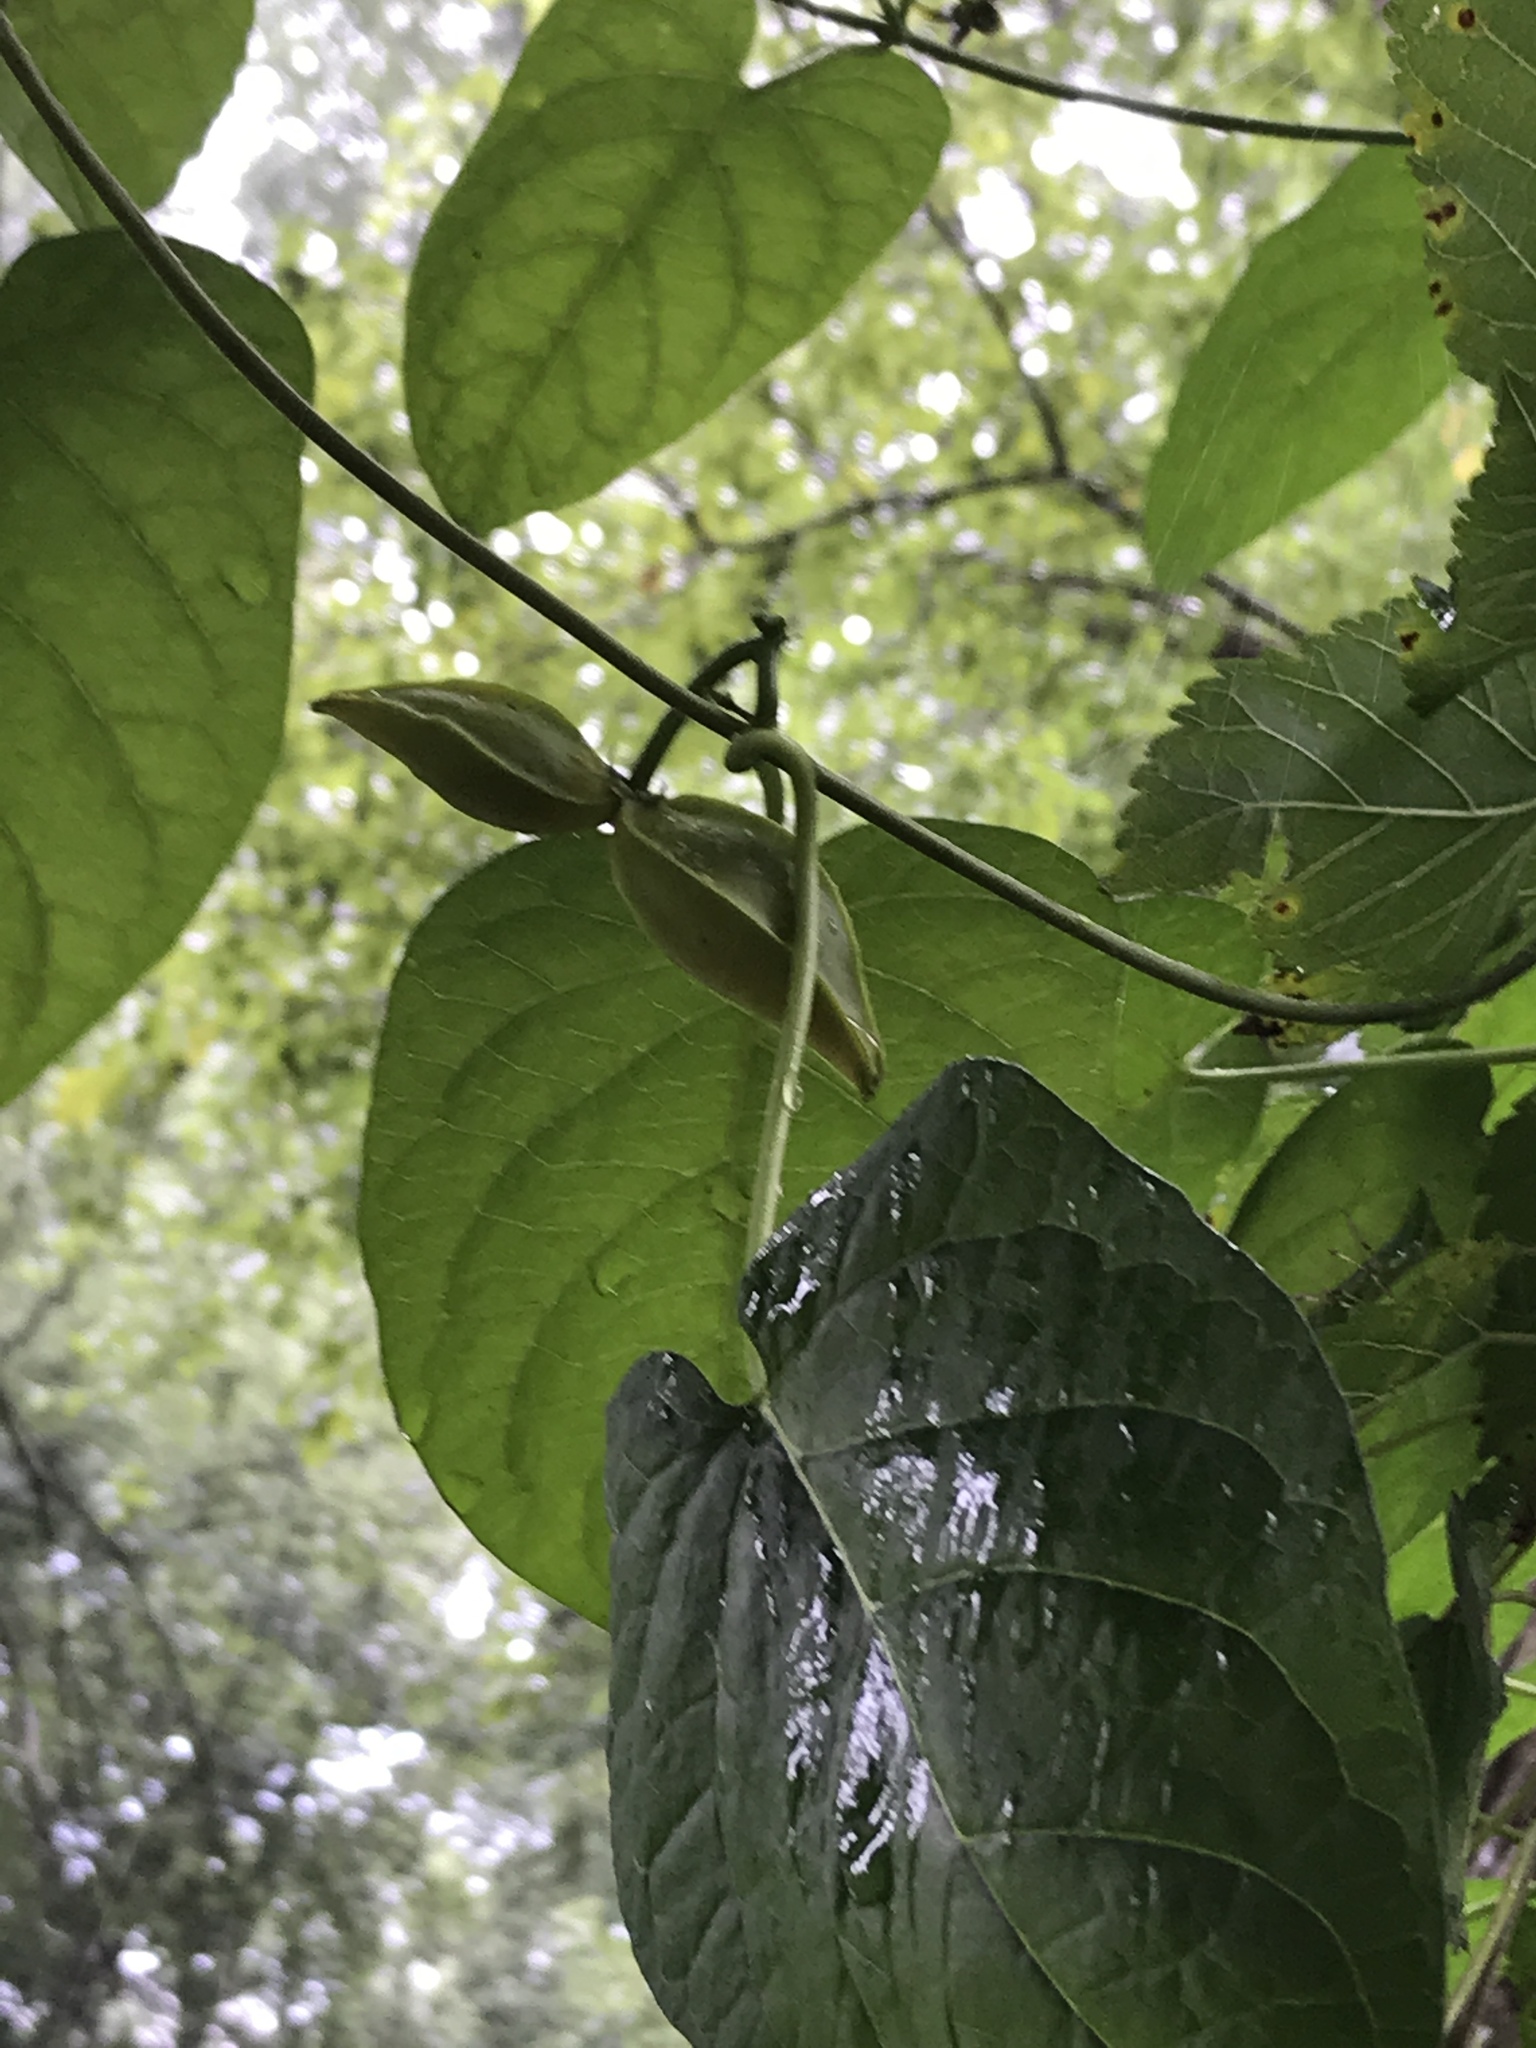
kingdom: Plantae
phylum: Tracheophyta
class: Magnoliopsida
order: Gentianales
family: Apocynaceae
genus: Gonolobus
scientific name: Gonolobus suberosus
